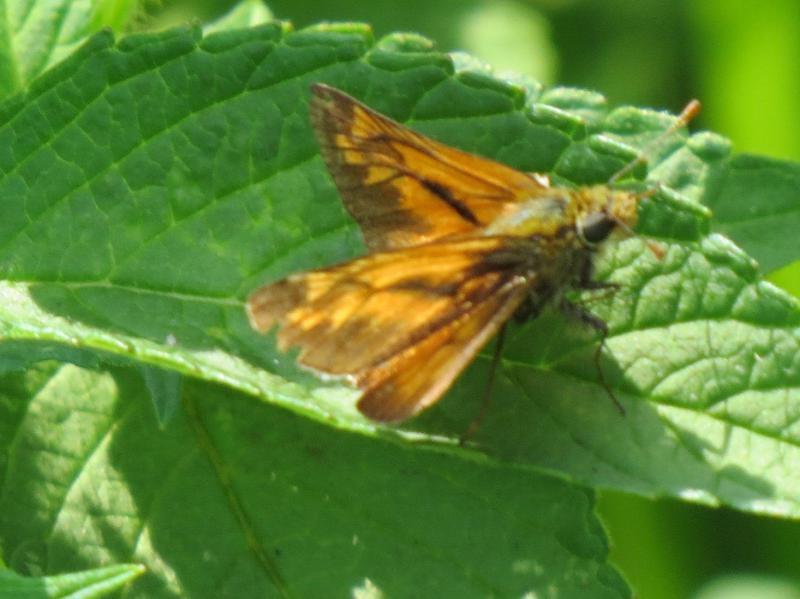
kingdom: Animalia
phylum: Arthropoda
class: Insecta
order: Lepidoptera
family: Hesperiidae
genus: Ochlodes
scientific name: Ochlodes venata
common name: Large skipper
